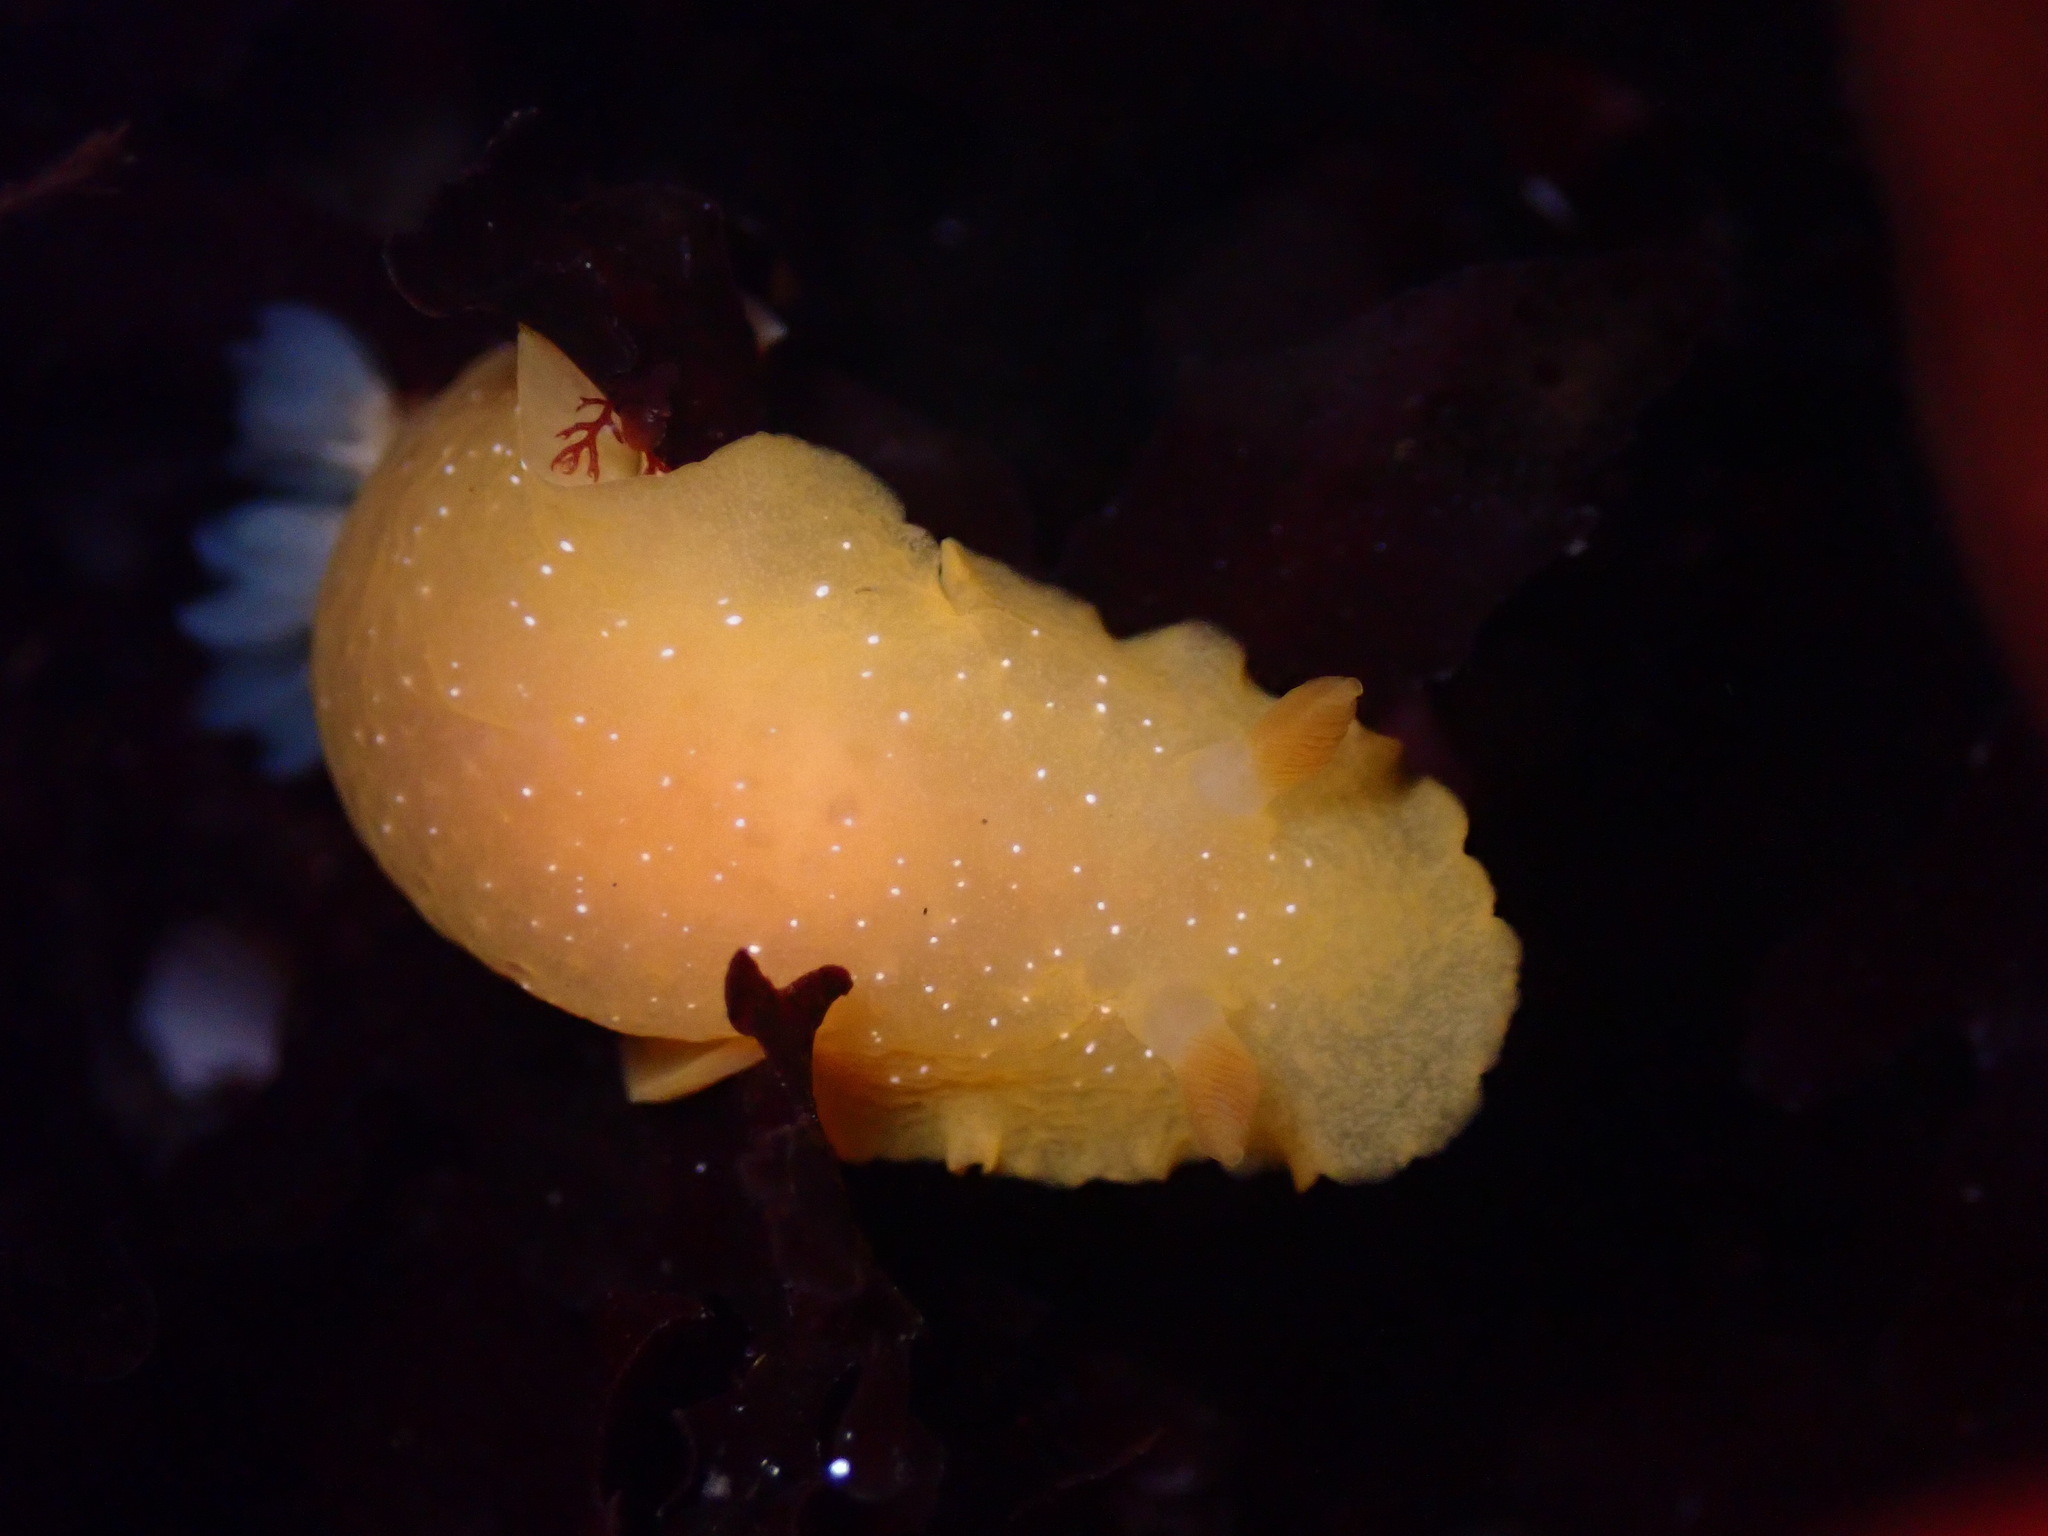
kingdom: Animalia
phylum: Mollusca
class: Gastropoda
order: Nudibranchia
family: Dendrodorididae
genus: Doriopsilla
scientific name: Doriopsilla fulva
